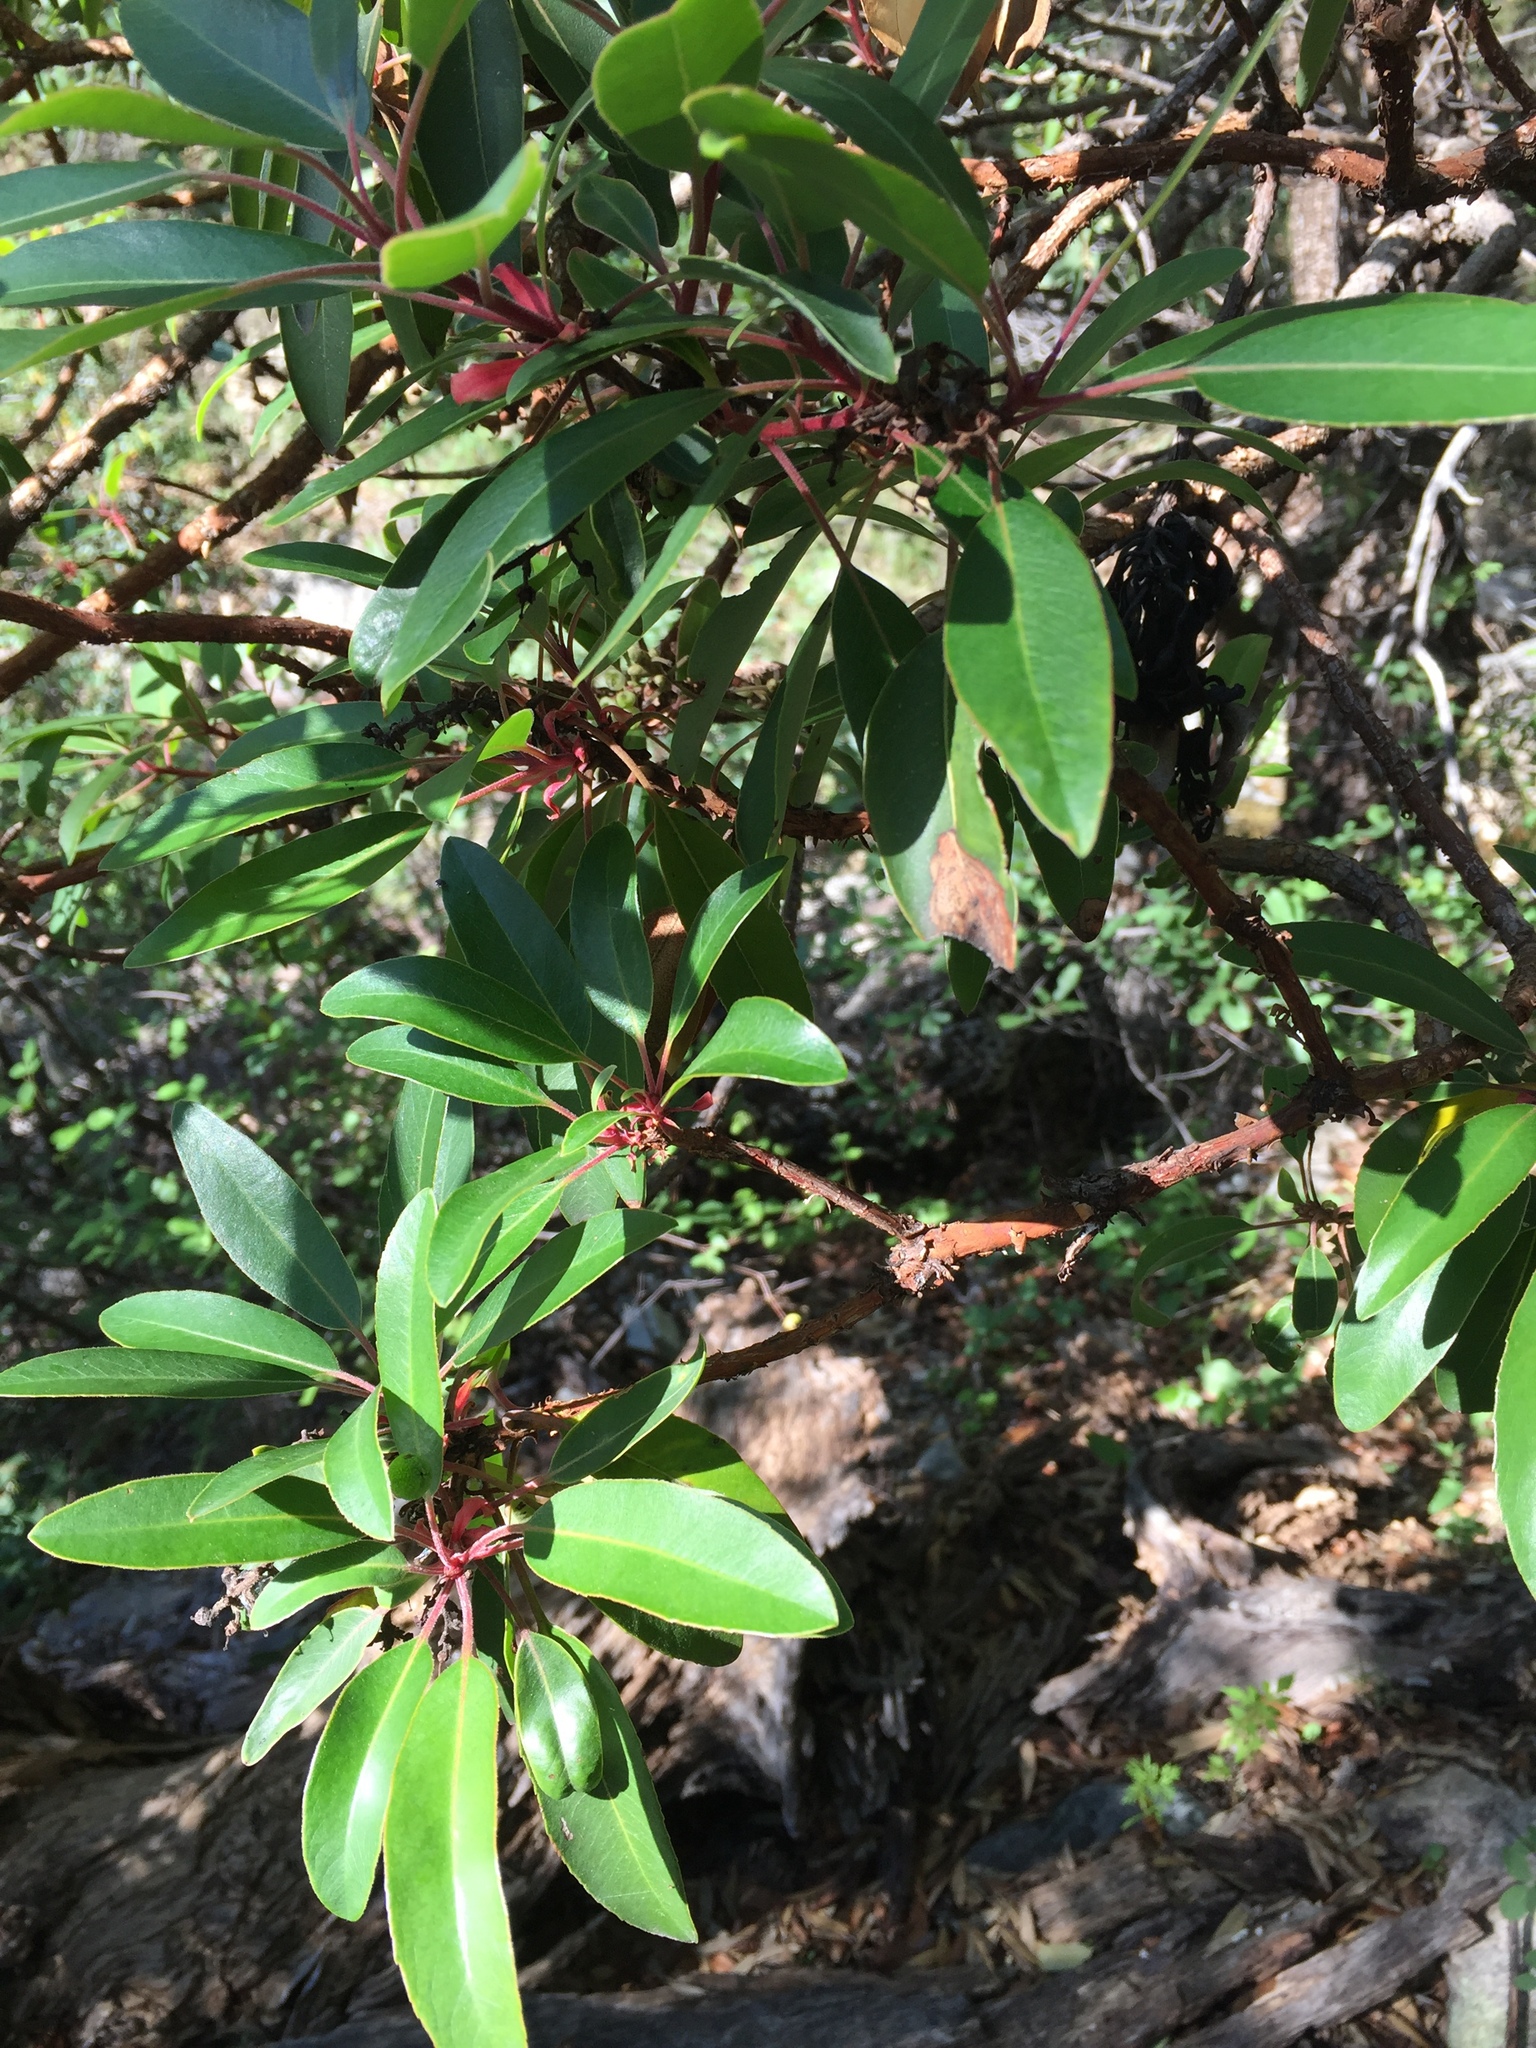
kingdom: Plantae
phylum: Tracheophyta
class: Magnoliopsida
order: Ericales
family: Ericaceae
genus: Arbutus
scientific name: Arbutus arizonica
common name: Arizona madrone
